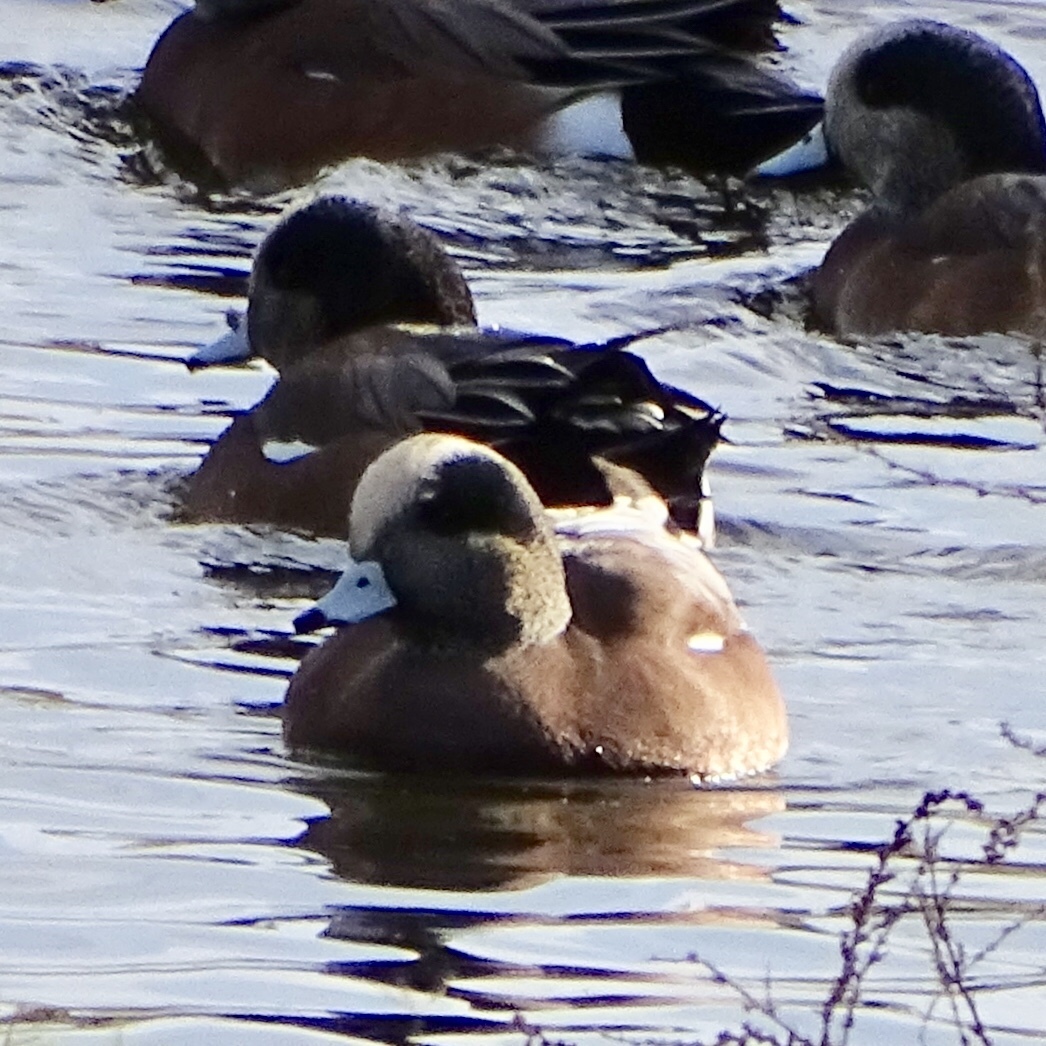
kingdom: Animalia
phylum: Chordata
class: Aves
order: Anseriformes
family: Anatidae
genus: Mareca
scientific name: Mareca americana
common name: American wigeon
